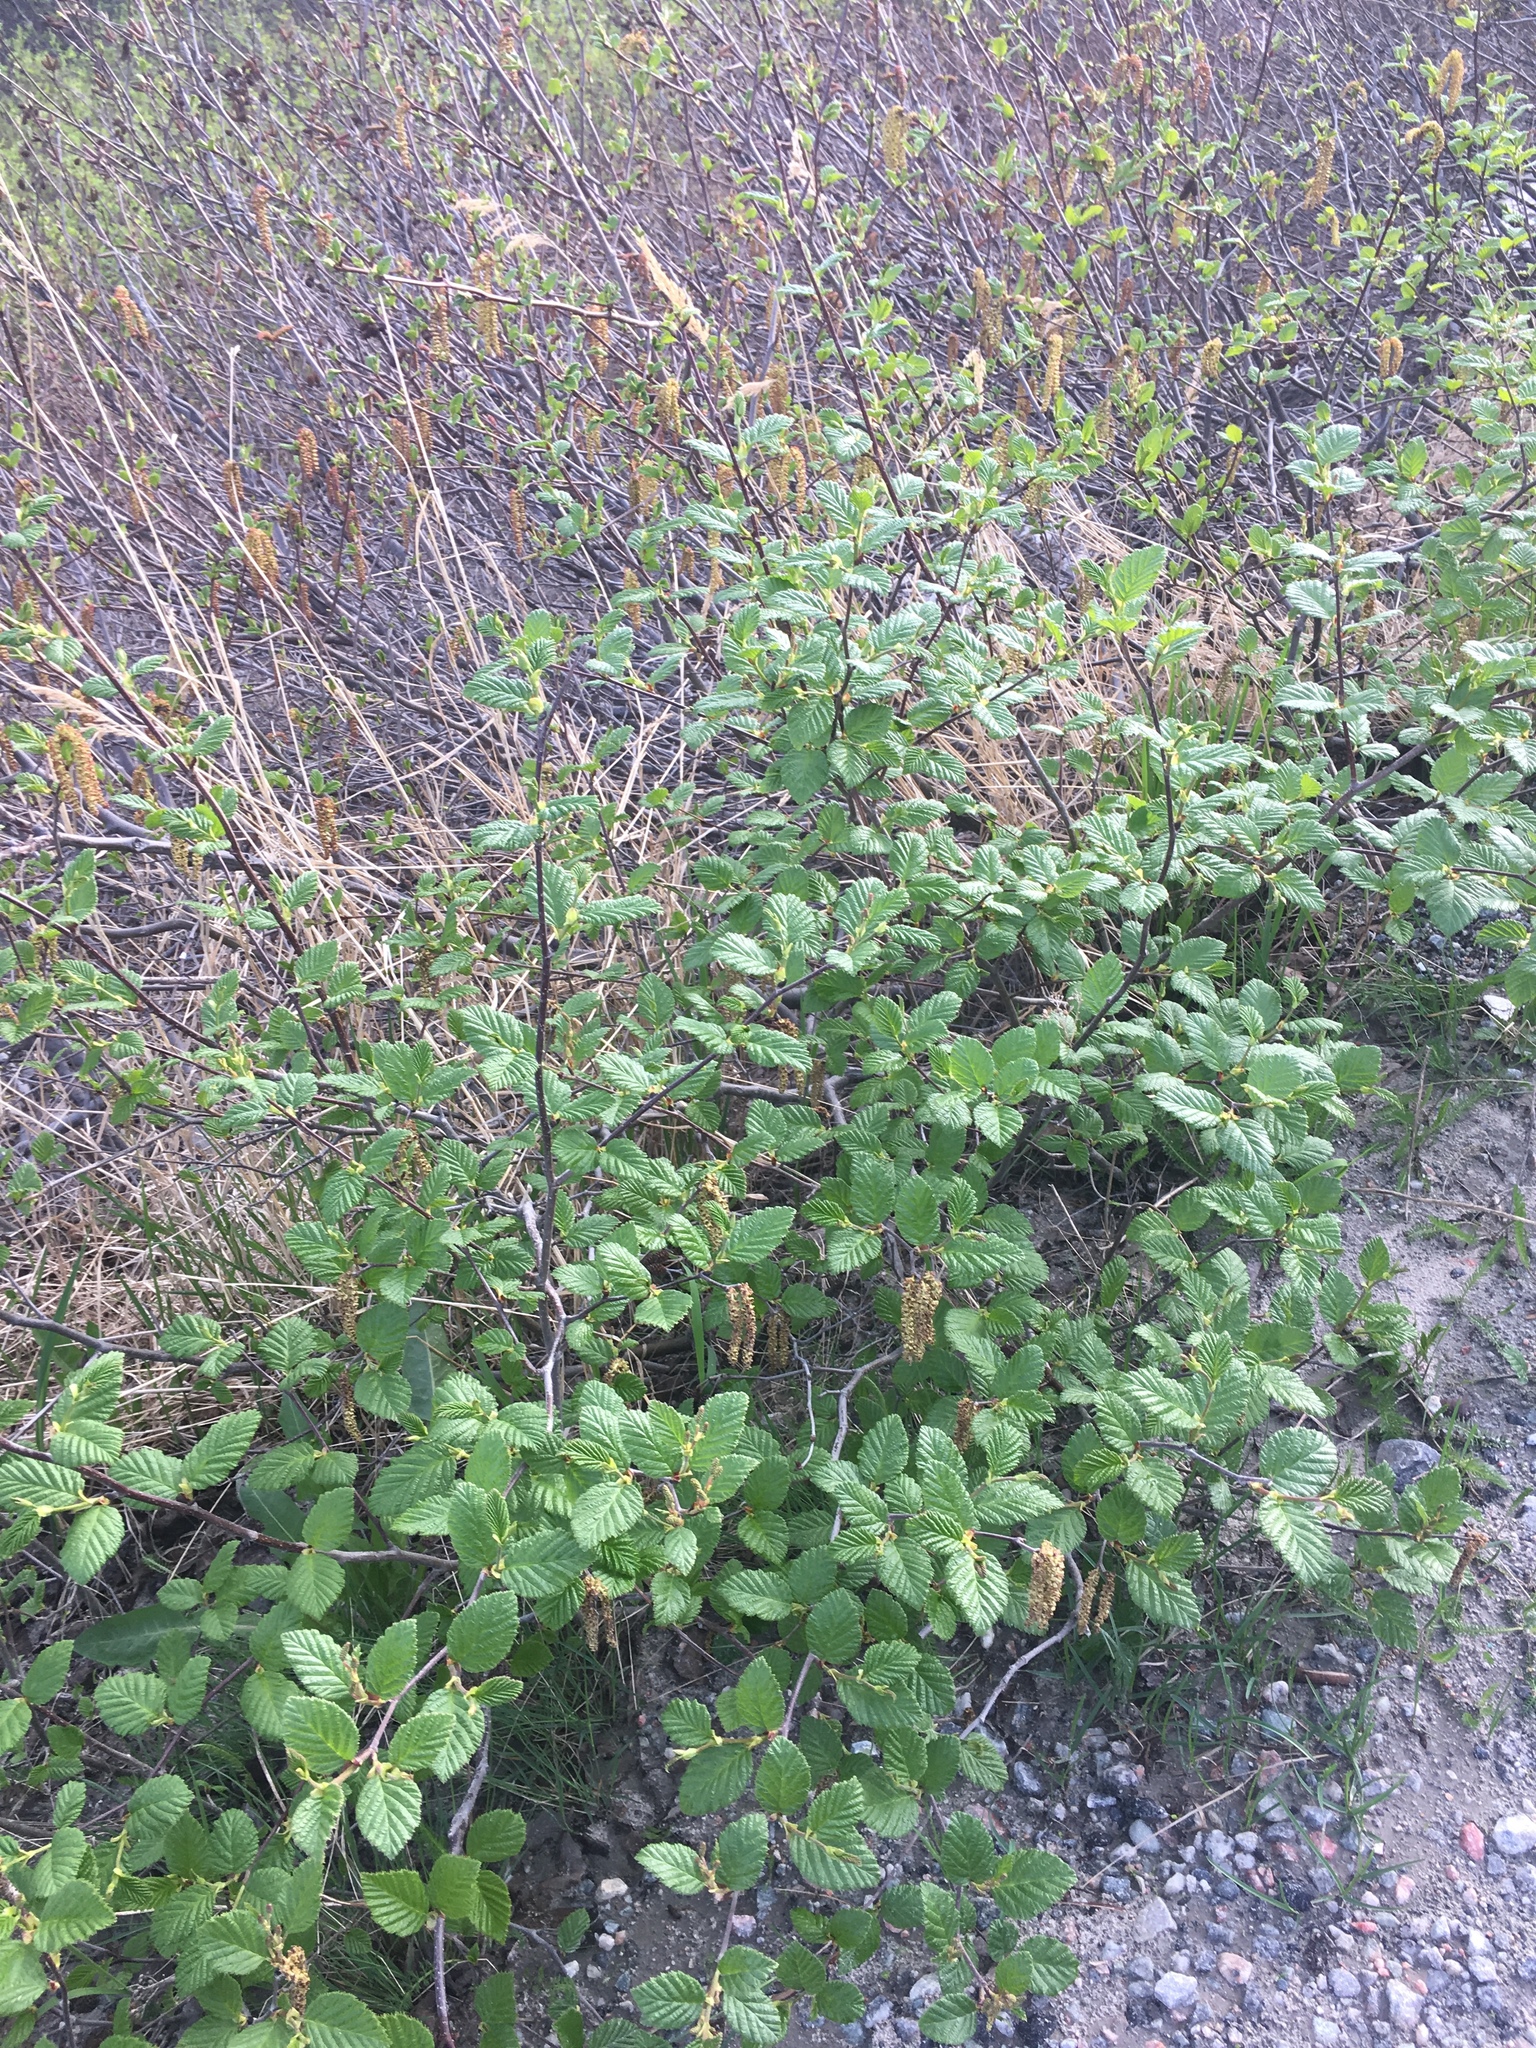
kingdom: Plantae
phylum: Tracheophyta
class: Magnoliopsida
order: Fagales
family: Betulaceae
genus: Alnus
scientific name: Alnus alnobetula
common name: Green alder
